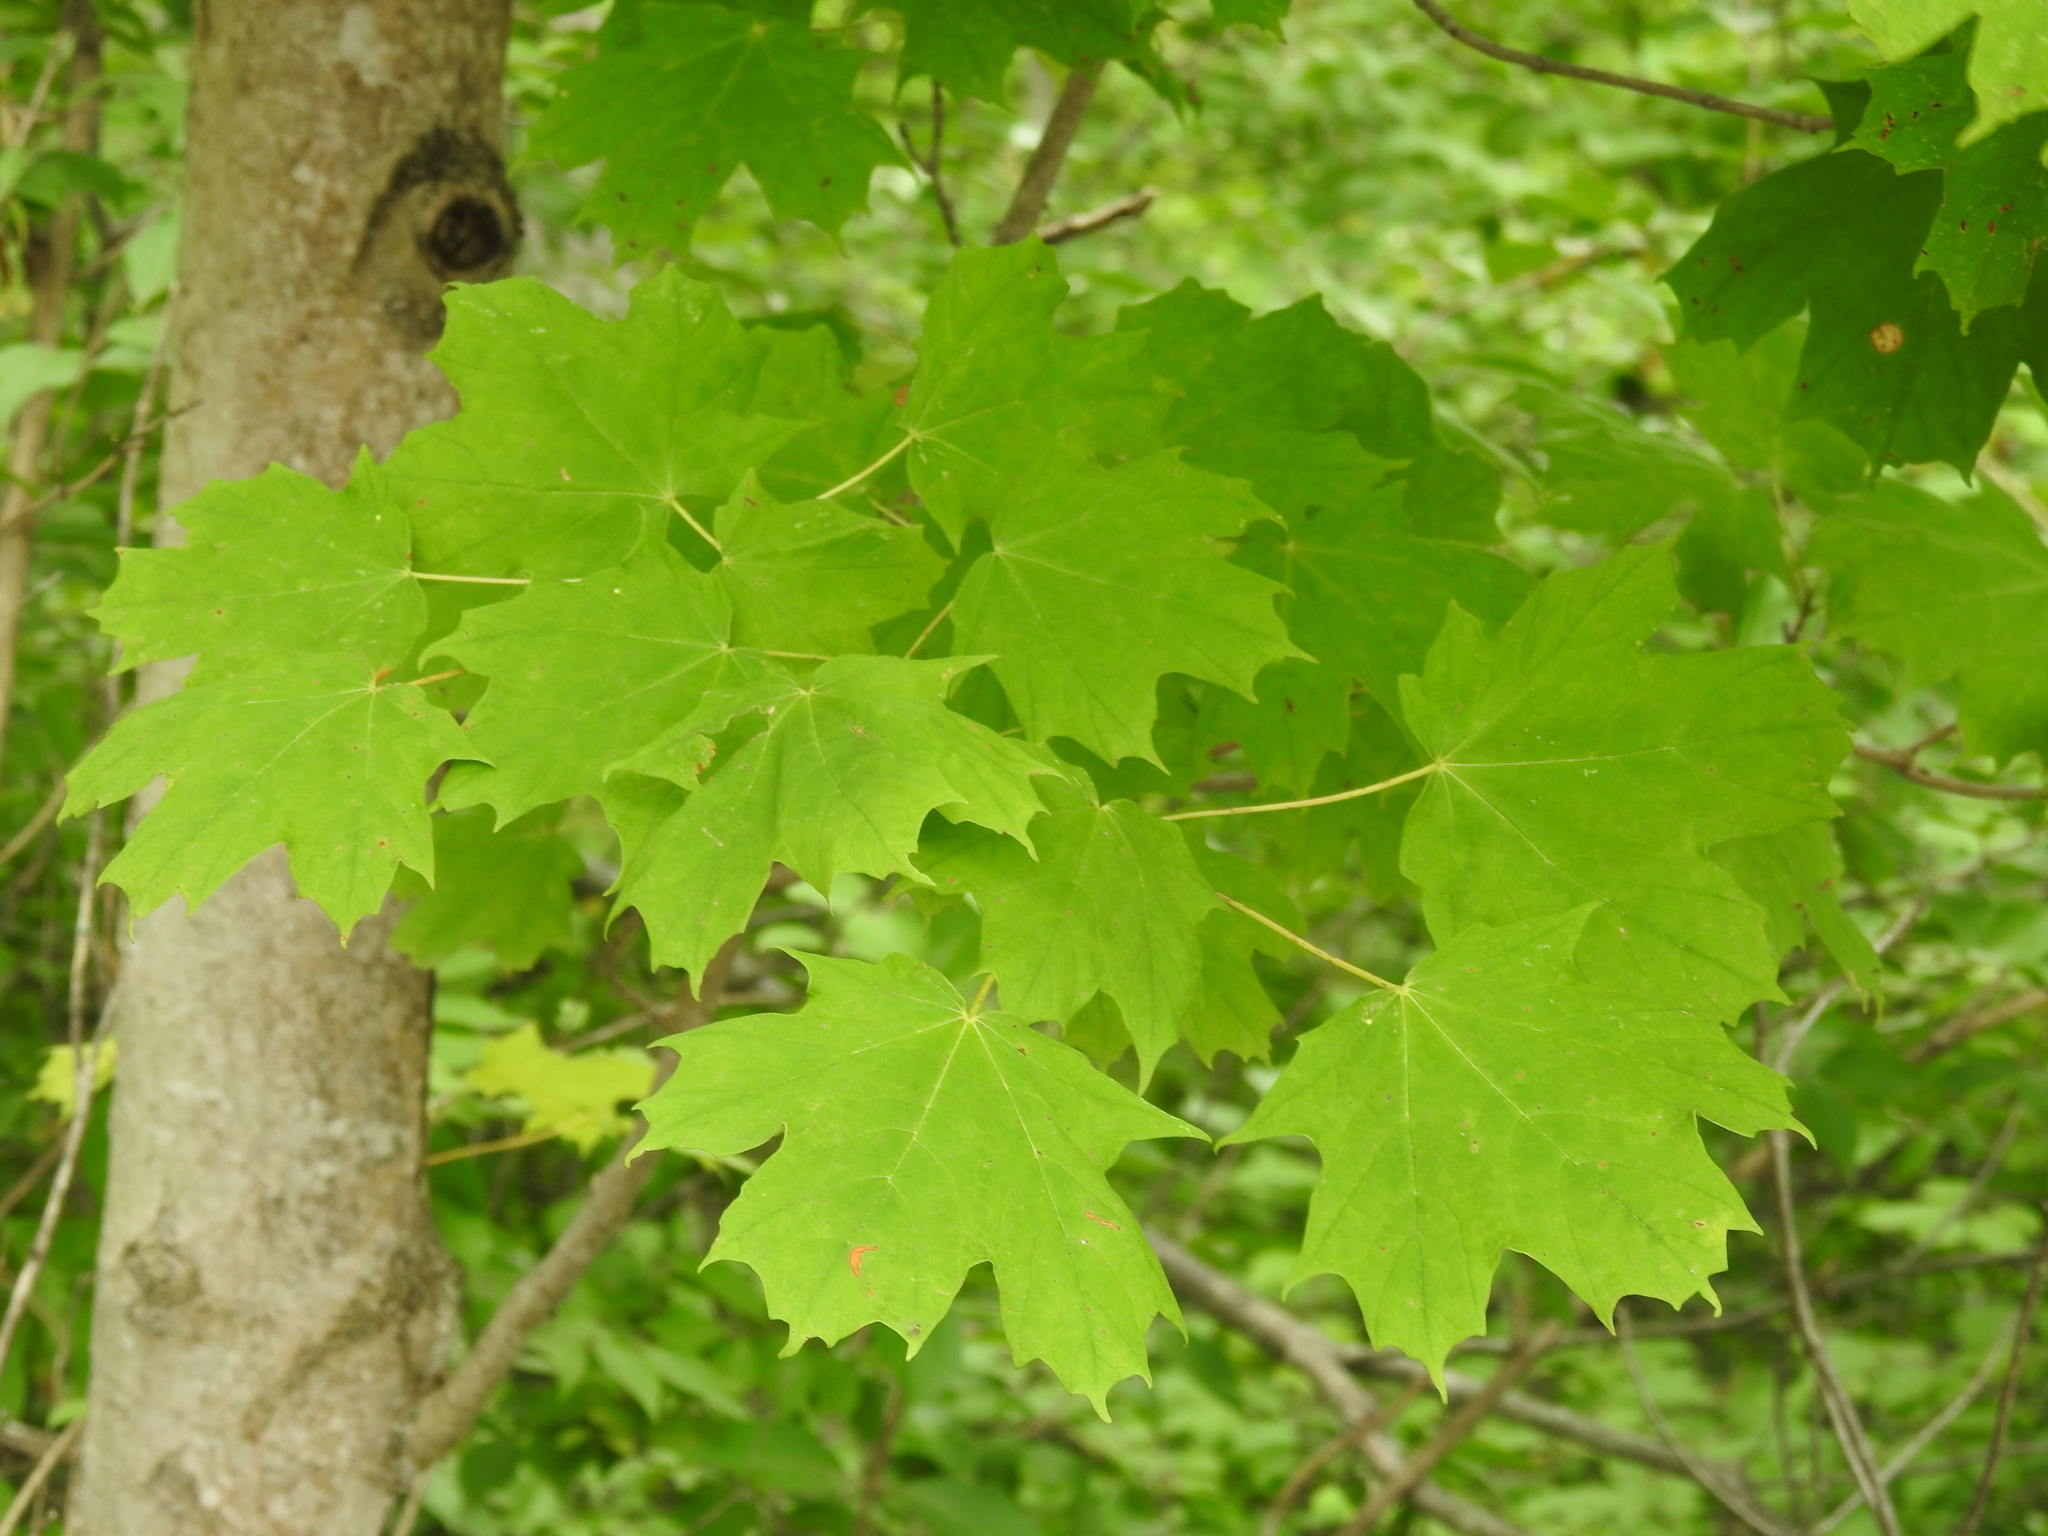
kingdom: Plantae
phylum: Tracheophyta
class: Magnoliopsida
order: Sapindales
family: Sapindaceae
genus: Acer
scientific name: Acer saccharum
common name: Sugar maple
